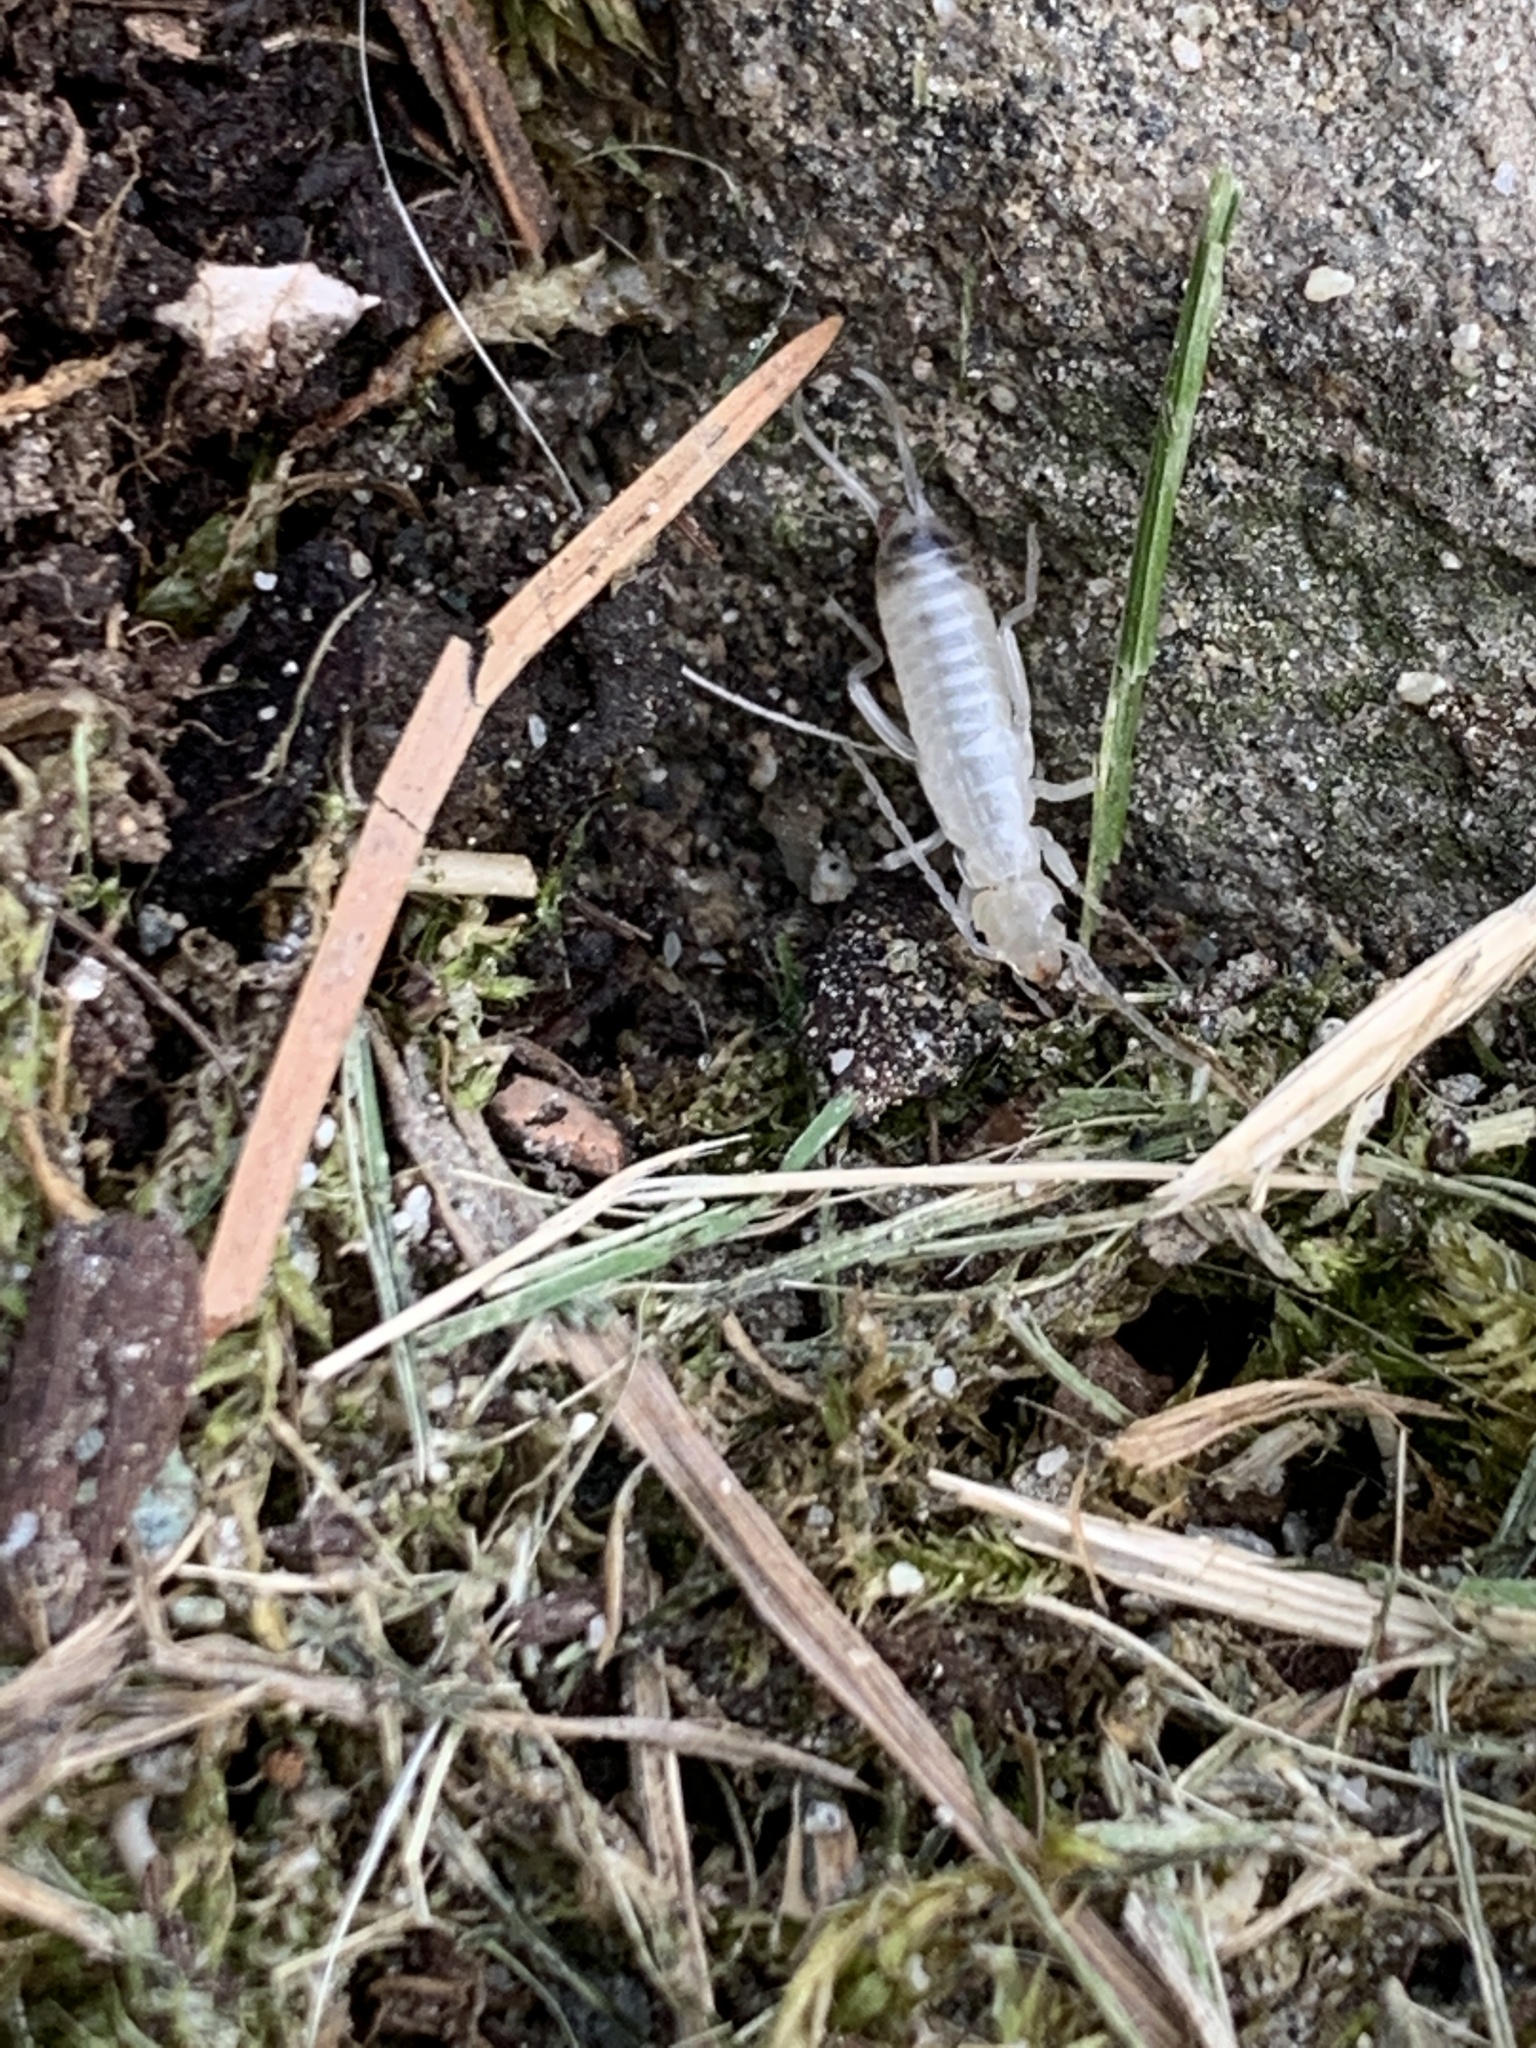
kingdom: Animalia
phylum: Arthropoda
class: Insecta
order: Dermaptera
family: Forficulidae
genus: Forficula
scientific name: Forficula
